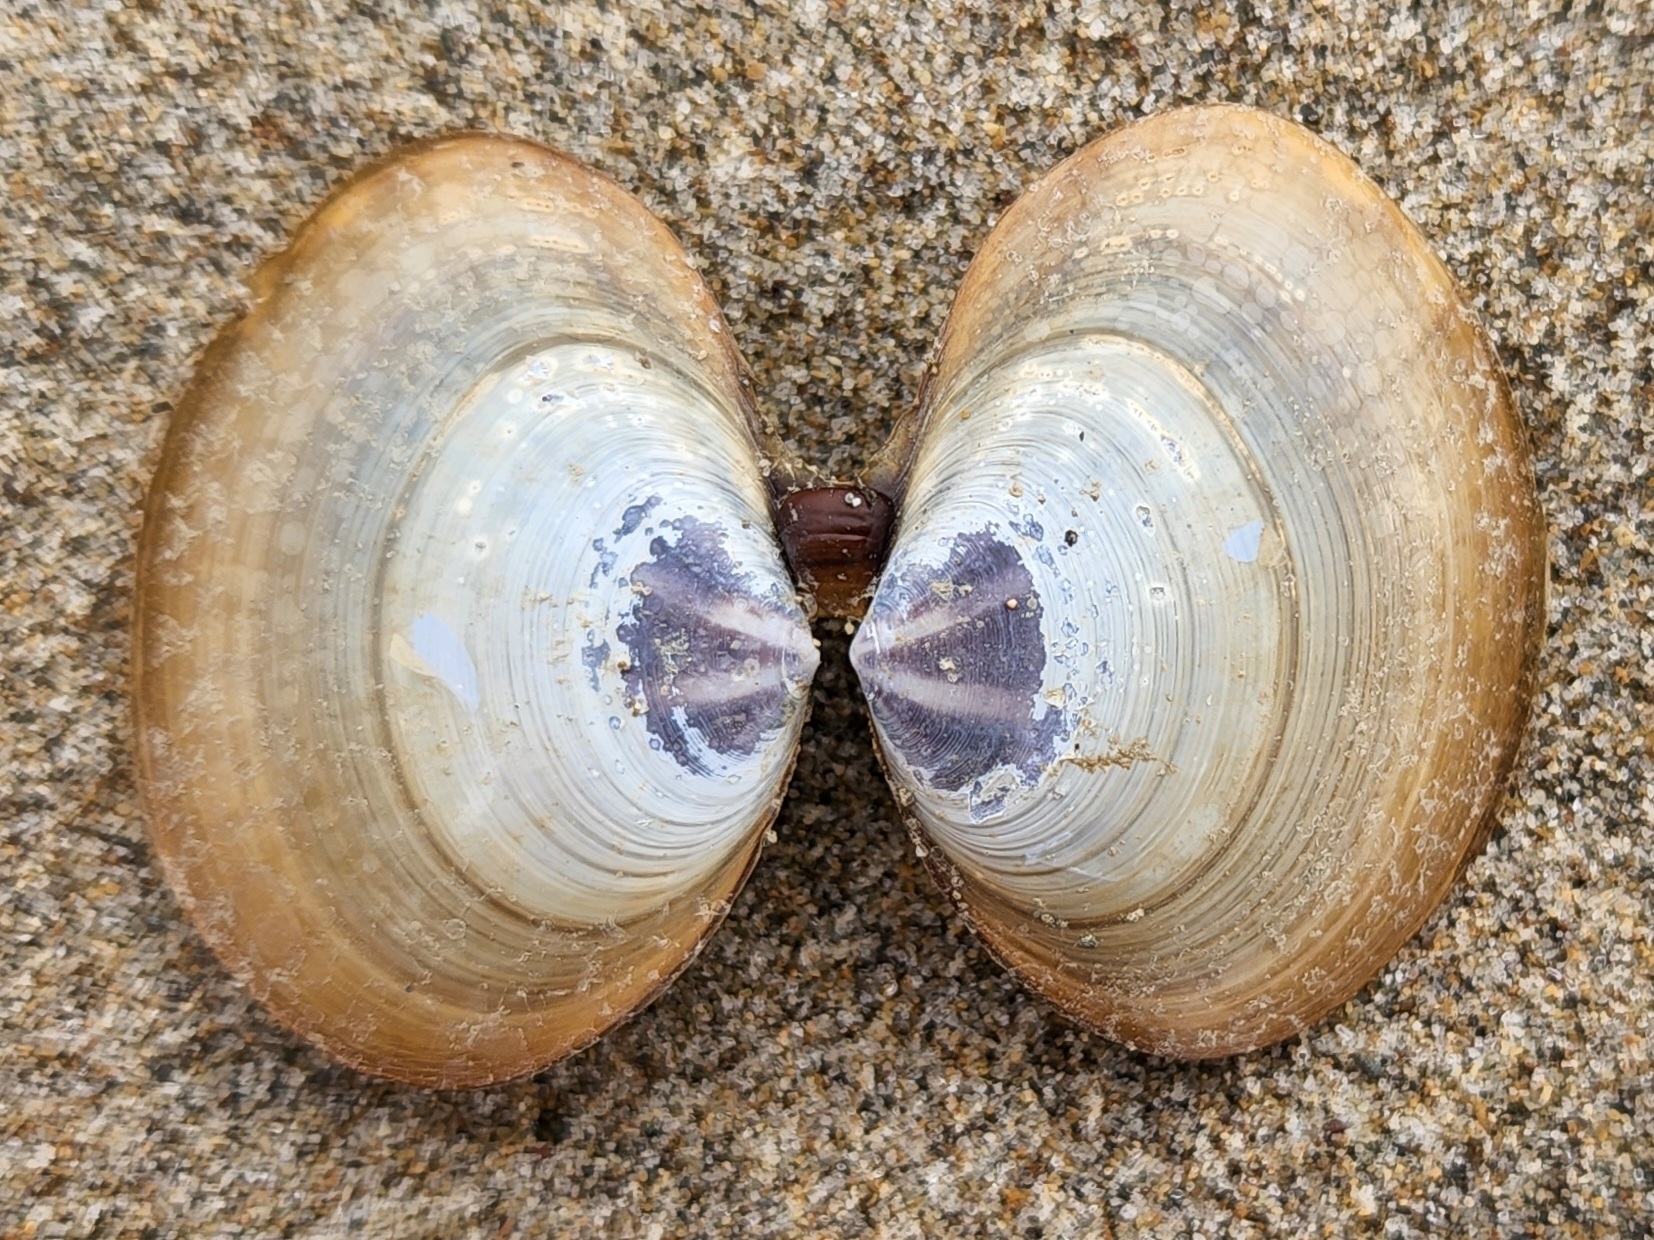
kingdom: Animalia
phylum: Mollusca
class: Bivalvia
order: Cardiida
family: Psammobiidae
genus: Nuttallia
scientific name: Nuttallia obscurata
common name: Purple mahogany-clam
